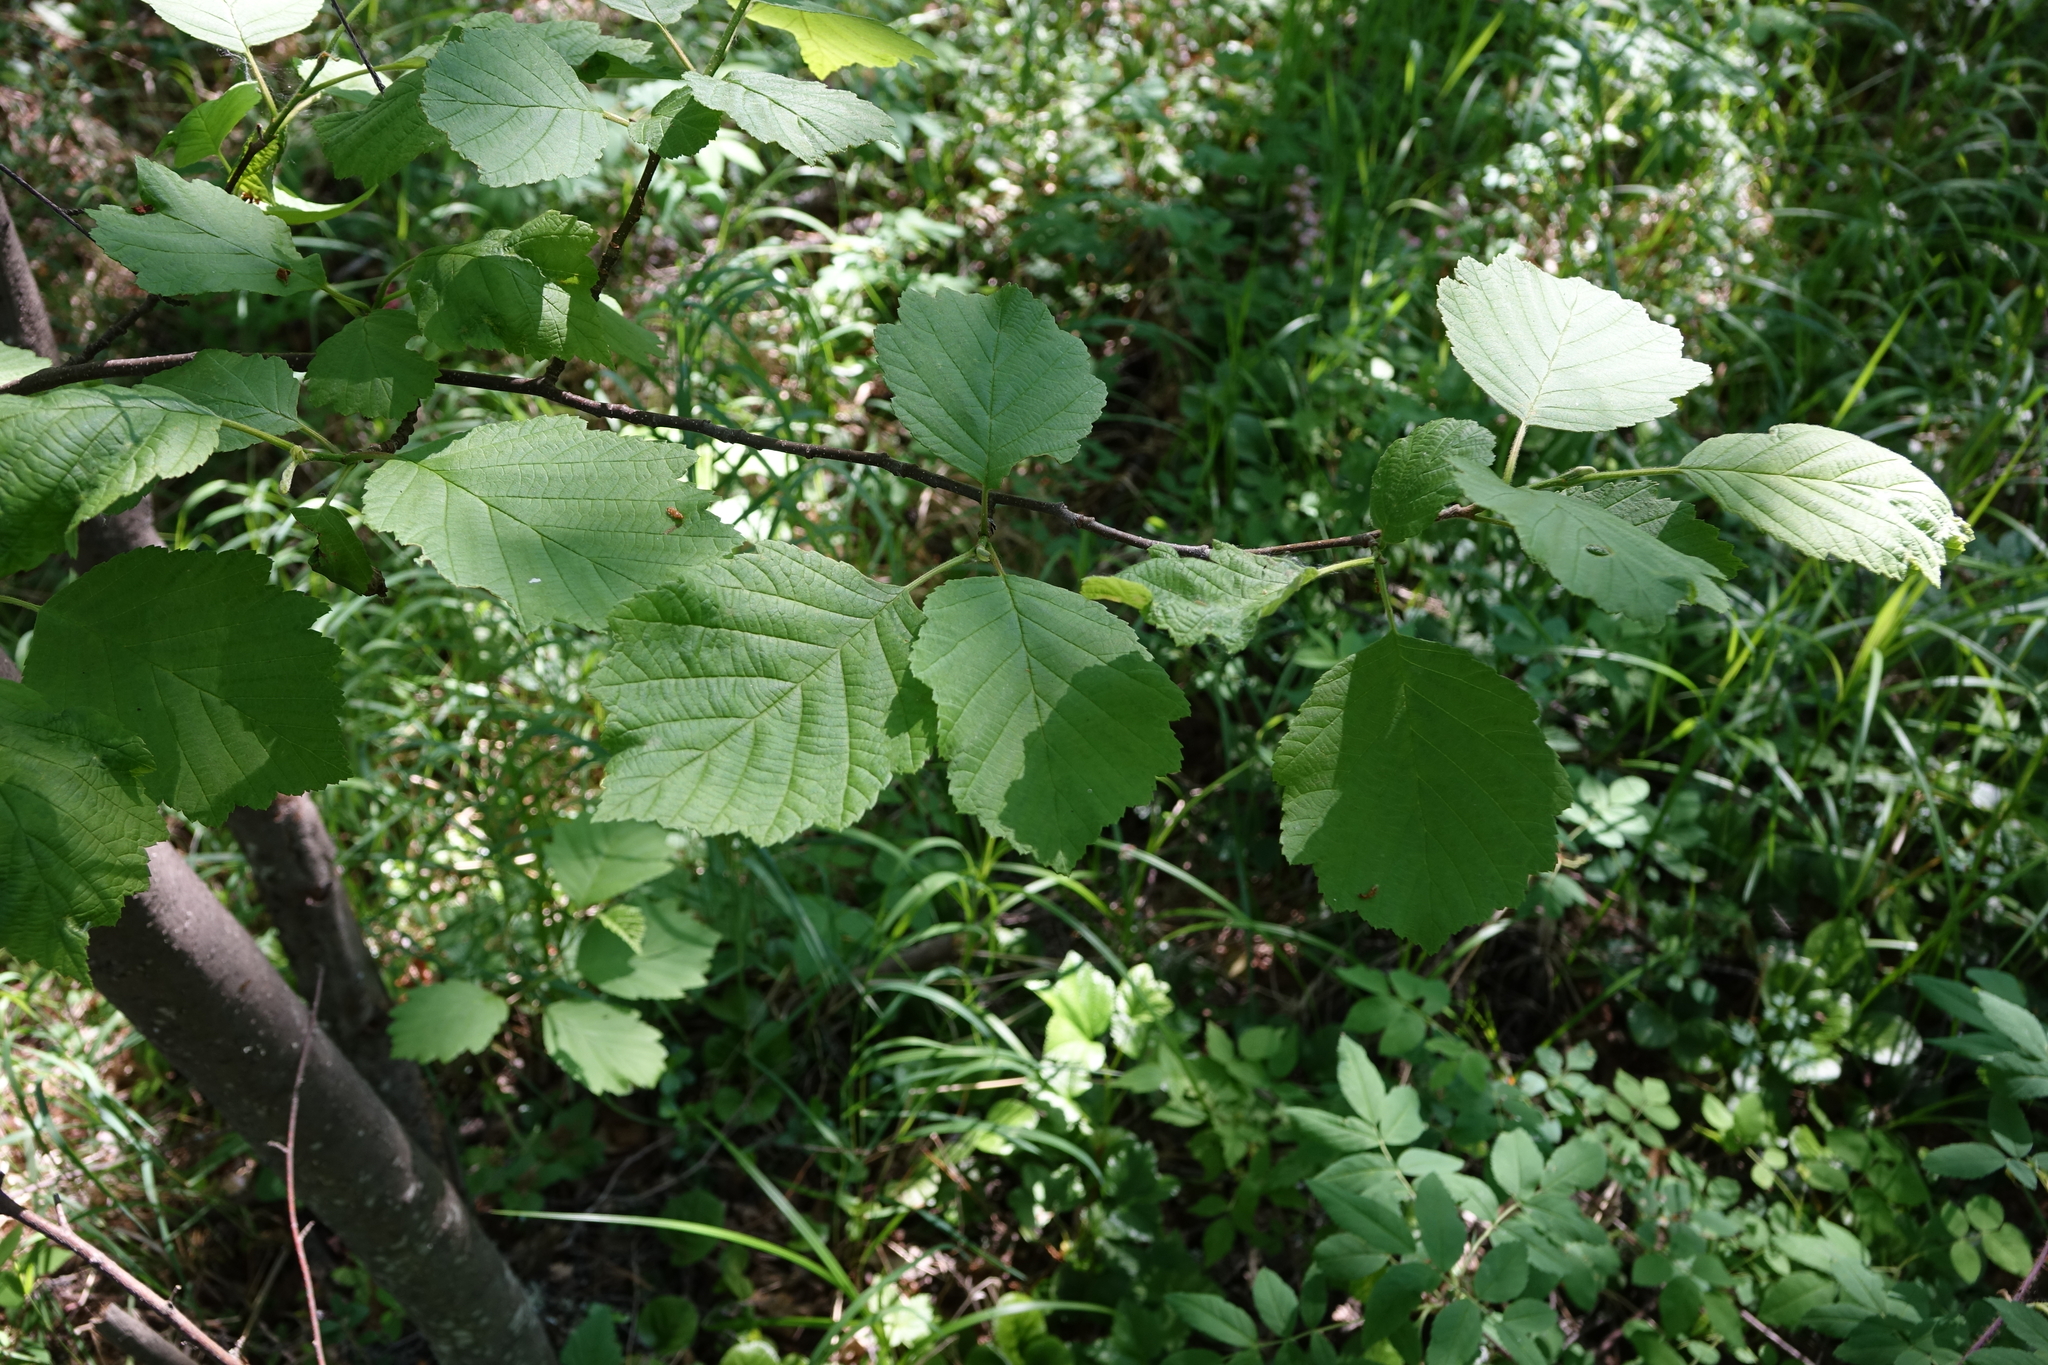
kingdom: Plantae
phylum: Tracheophyta
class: Magnoliopsida
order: Fagales
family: Betulaceae
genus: Alnus
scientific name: Alnus hirsuta
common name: Manchurian alder
